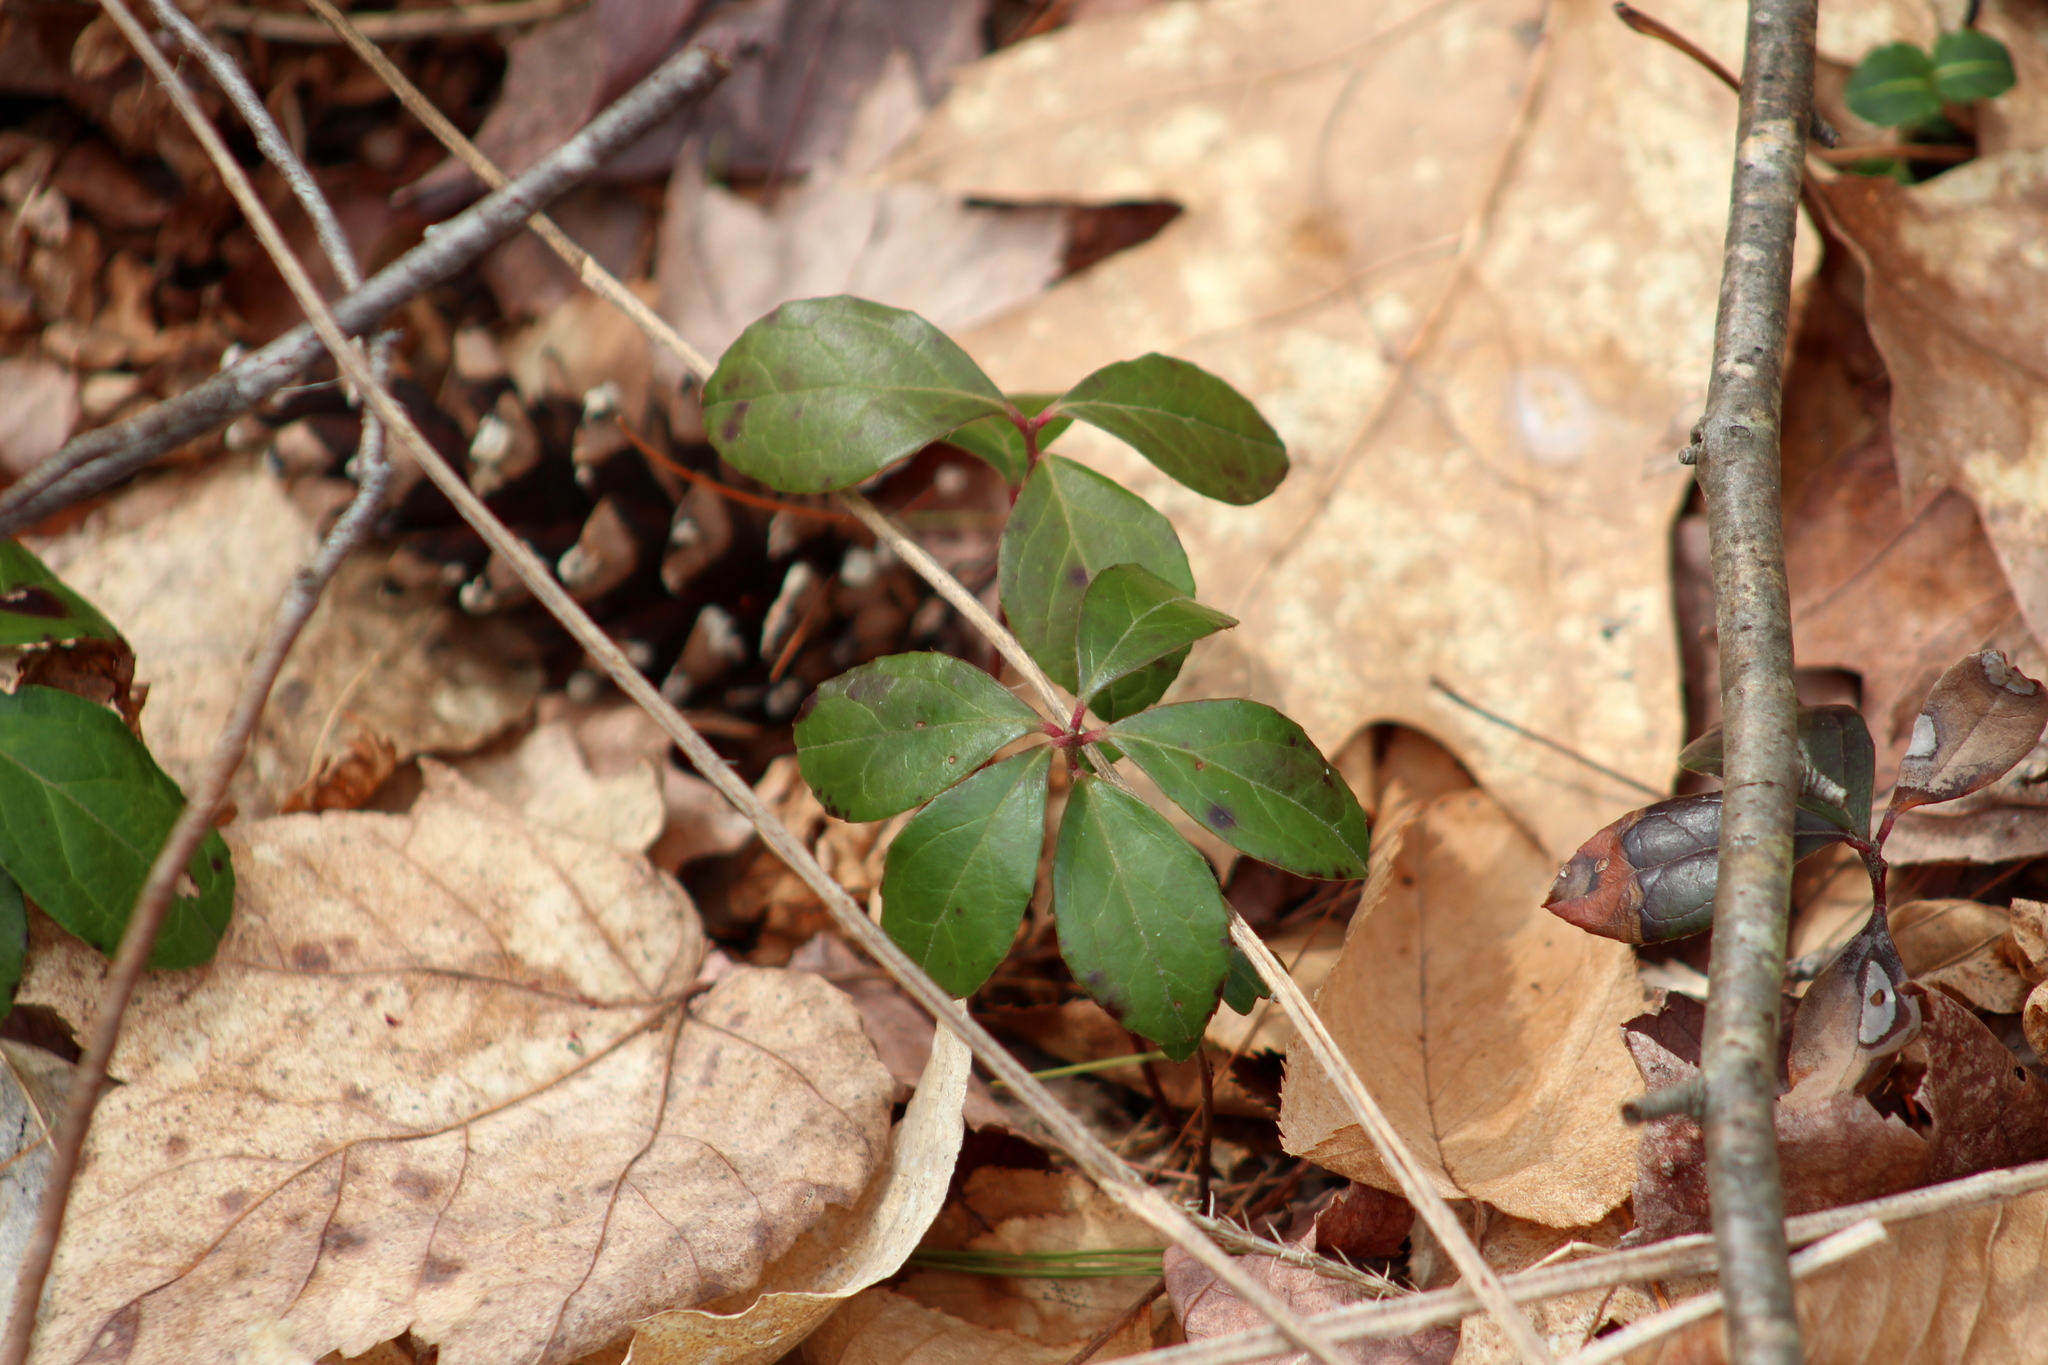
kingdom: Plantae
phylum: Tracheophyta
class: Magnoliopsida
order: Ericales
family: Ericaceae
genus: Gaultheria
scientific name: Gaultheria procumbens
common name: Checkerberry
